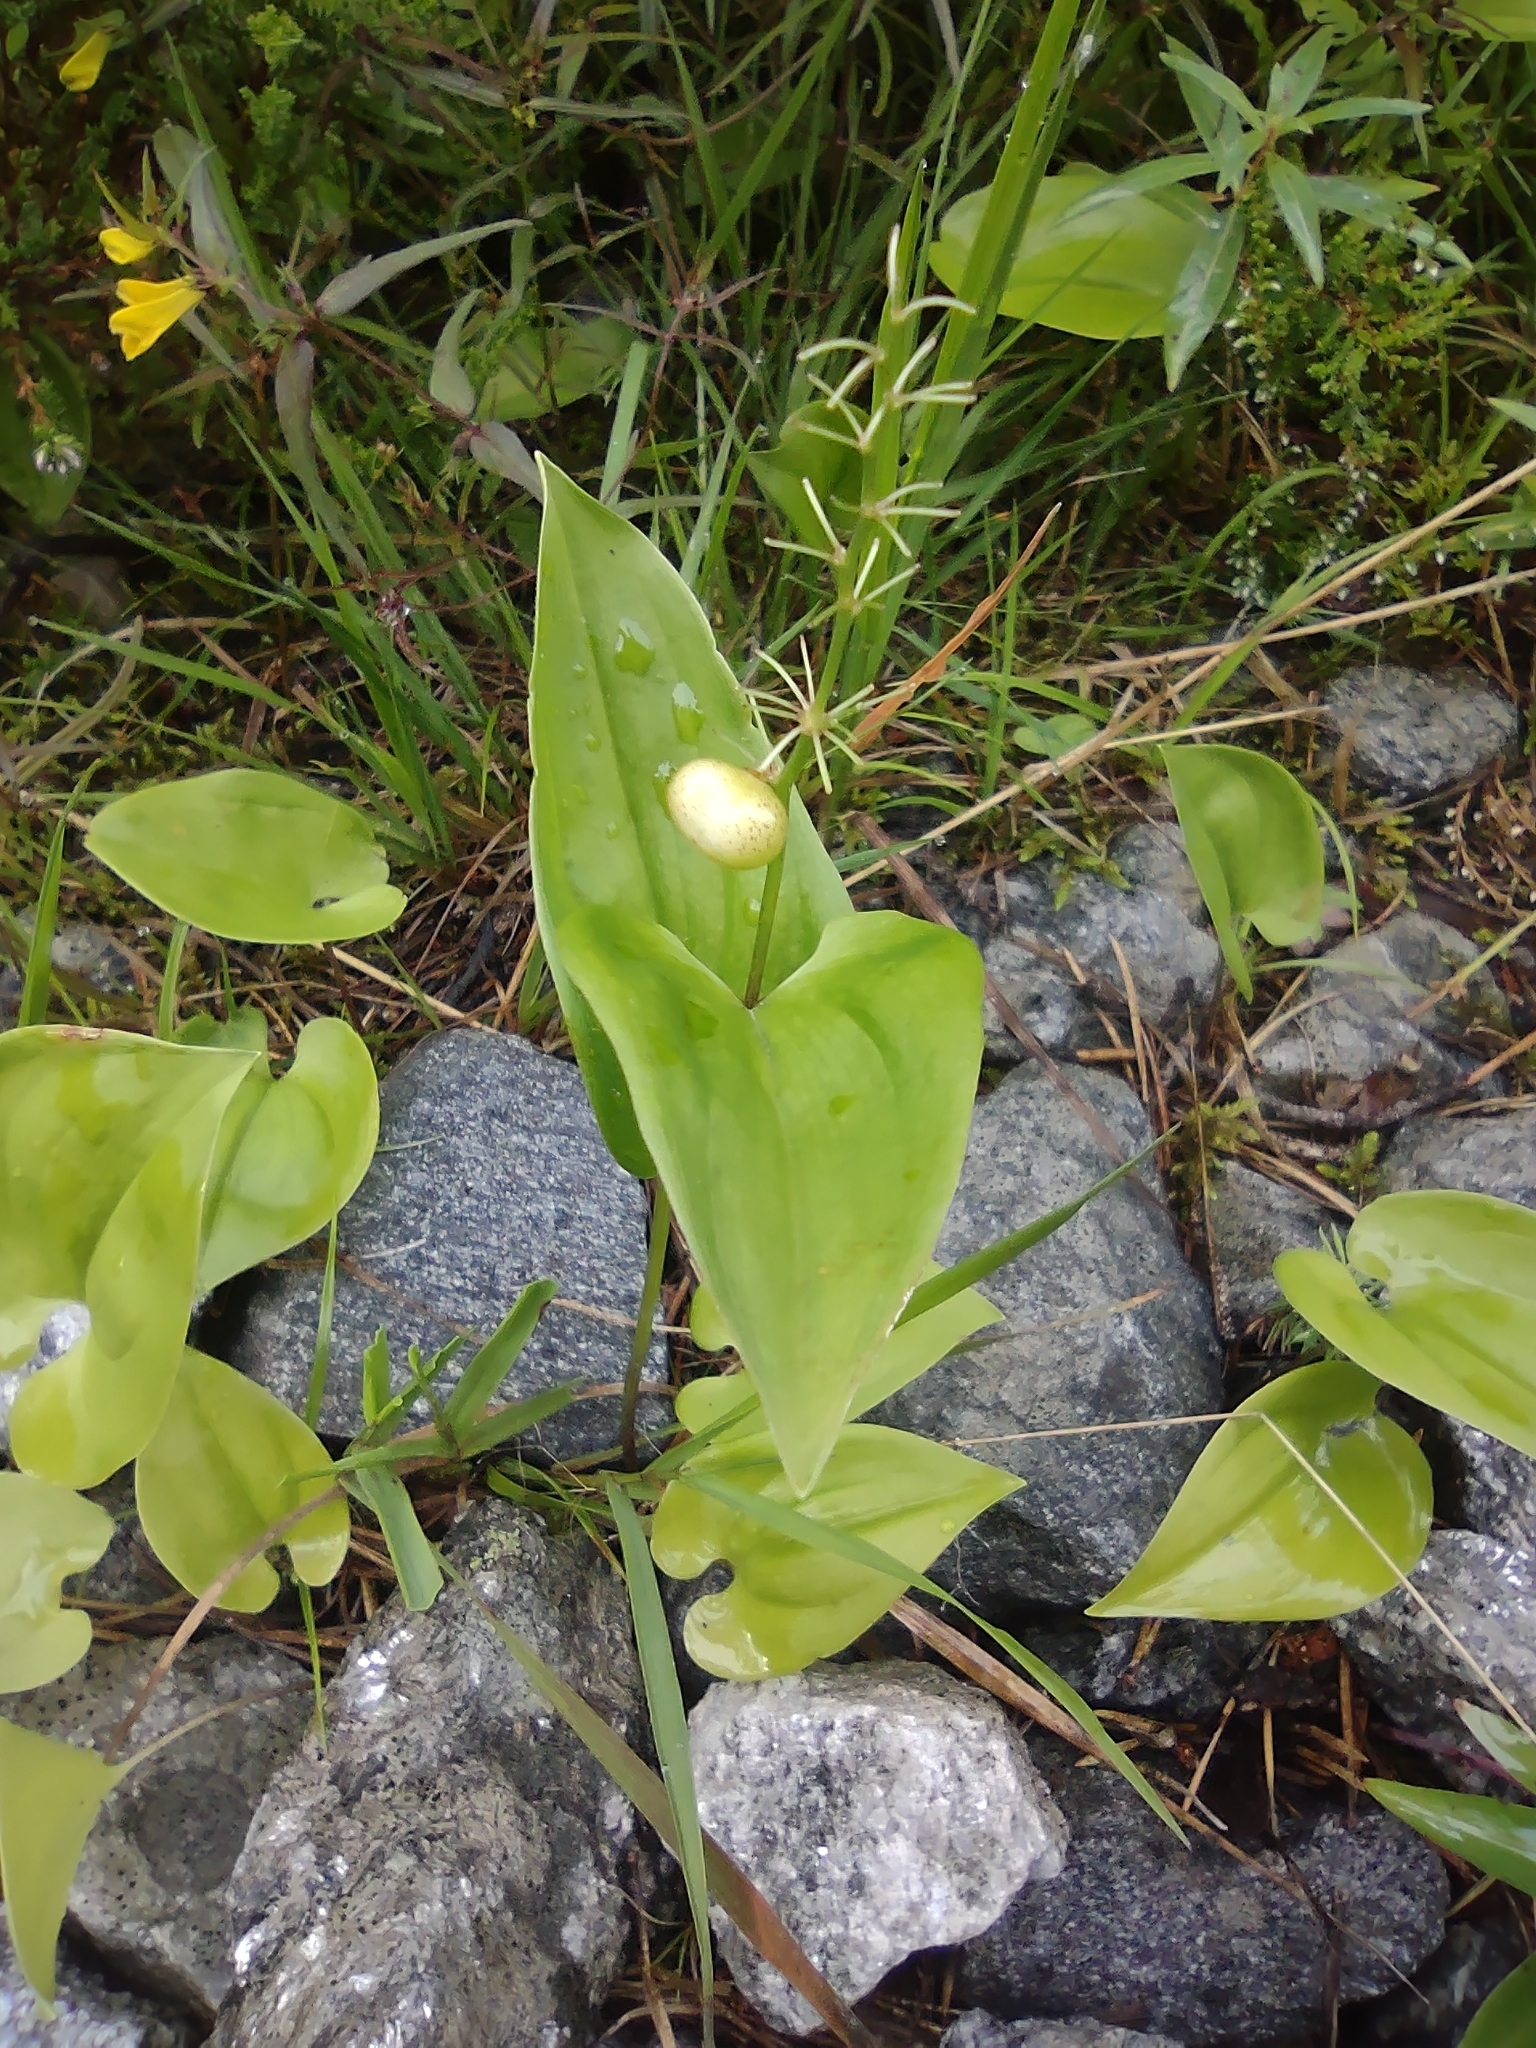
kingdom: Plantae
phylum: Tracheophyta
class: Liliopsida
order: Asparagales
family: Asparagaceae
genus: Maianthemum
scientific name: Maianthemum bifolium
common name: May lily
